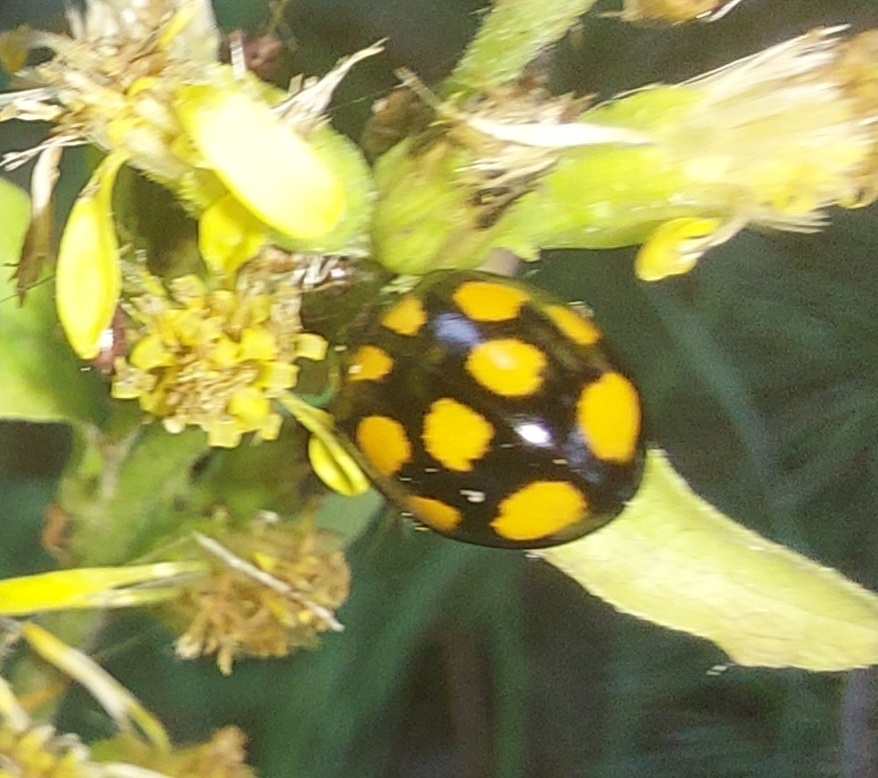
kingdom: Animalia
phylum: Arthropoda
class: Insecta
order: Coleoptera
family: Coccinellidae
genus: Harmonia
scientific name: Harmonia axyridis
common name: Harlequin ladybird
